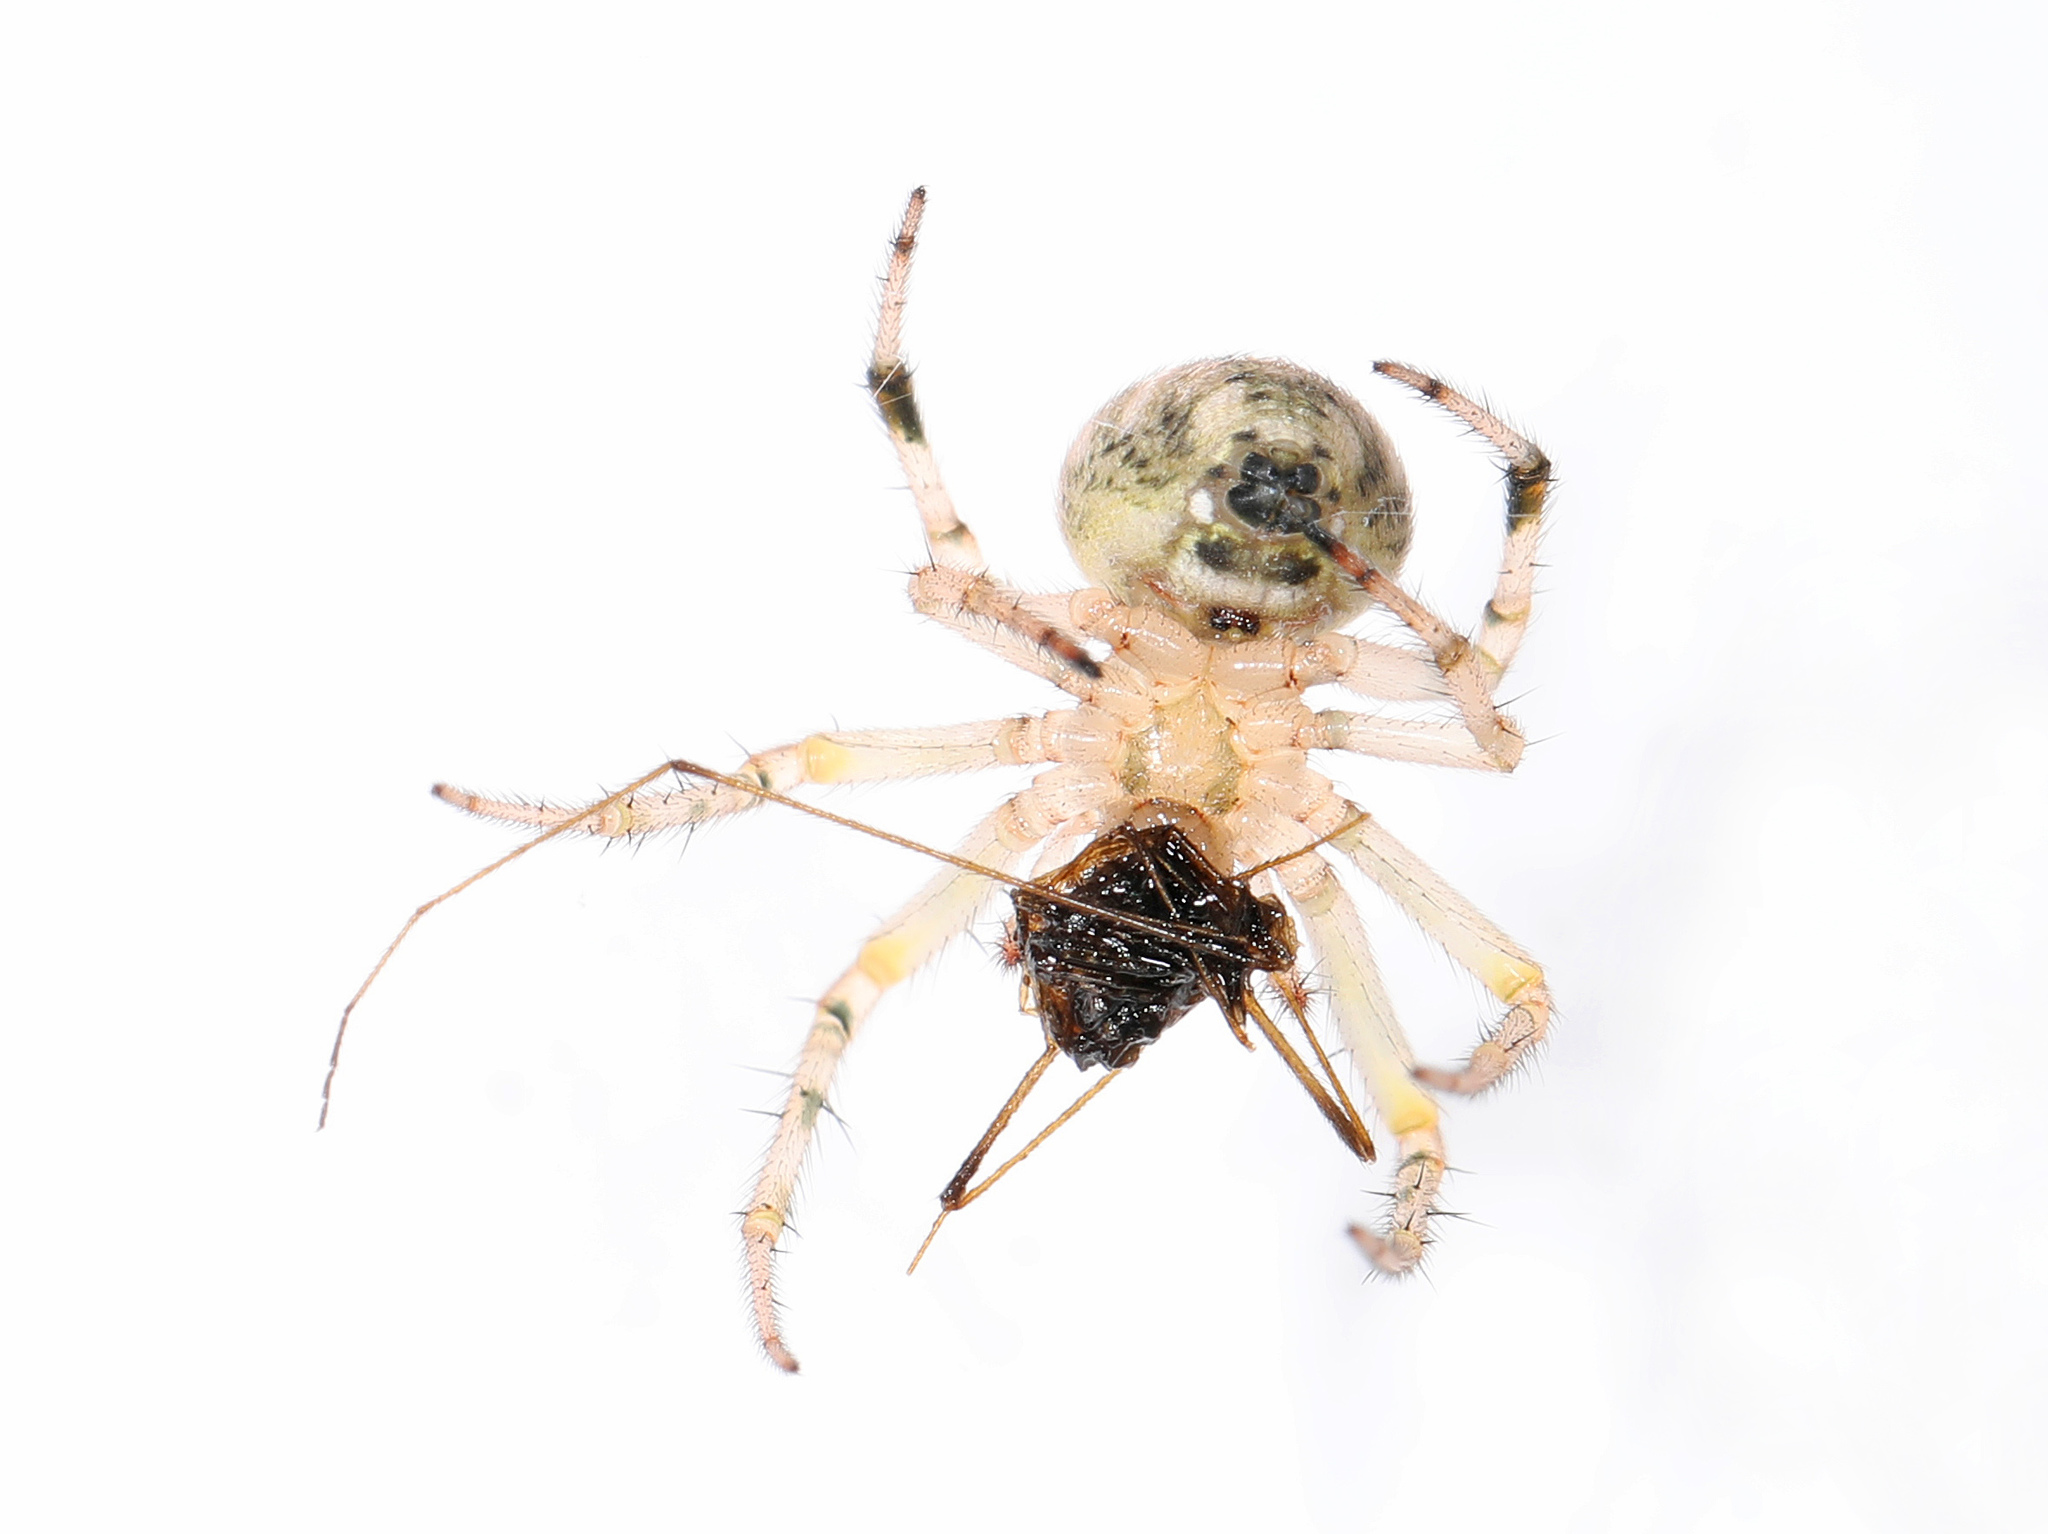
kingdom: Animalia
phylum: Arthropoda
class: Arachnida
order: Araneae
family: Araneidae
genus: Araneus
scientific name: Araneus pegnia
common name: Orb weavers
